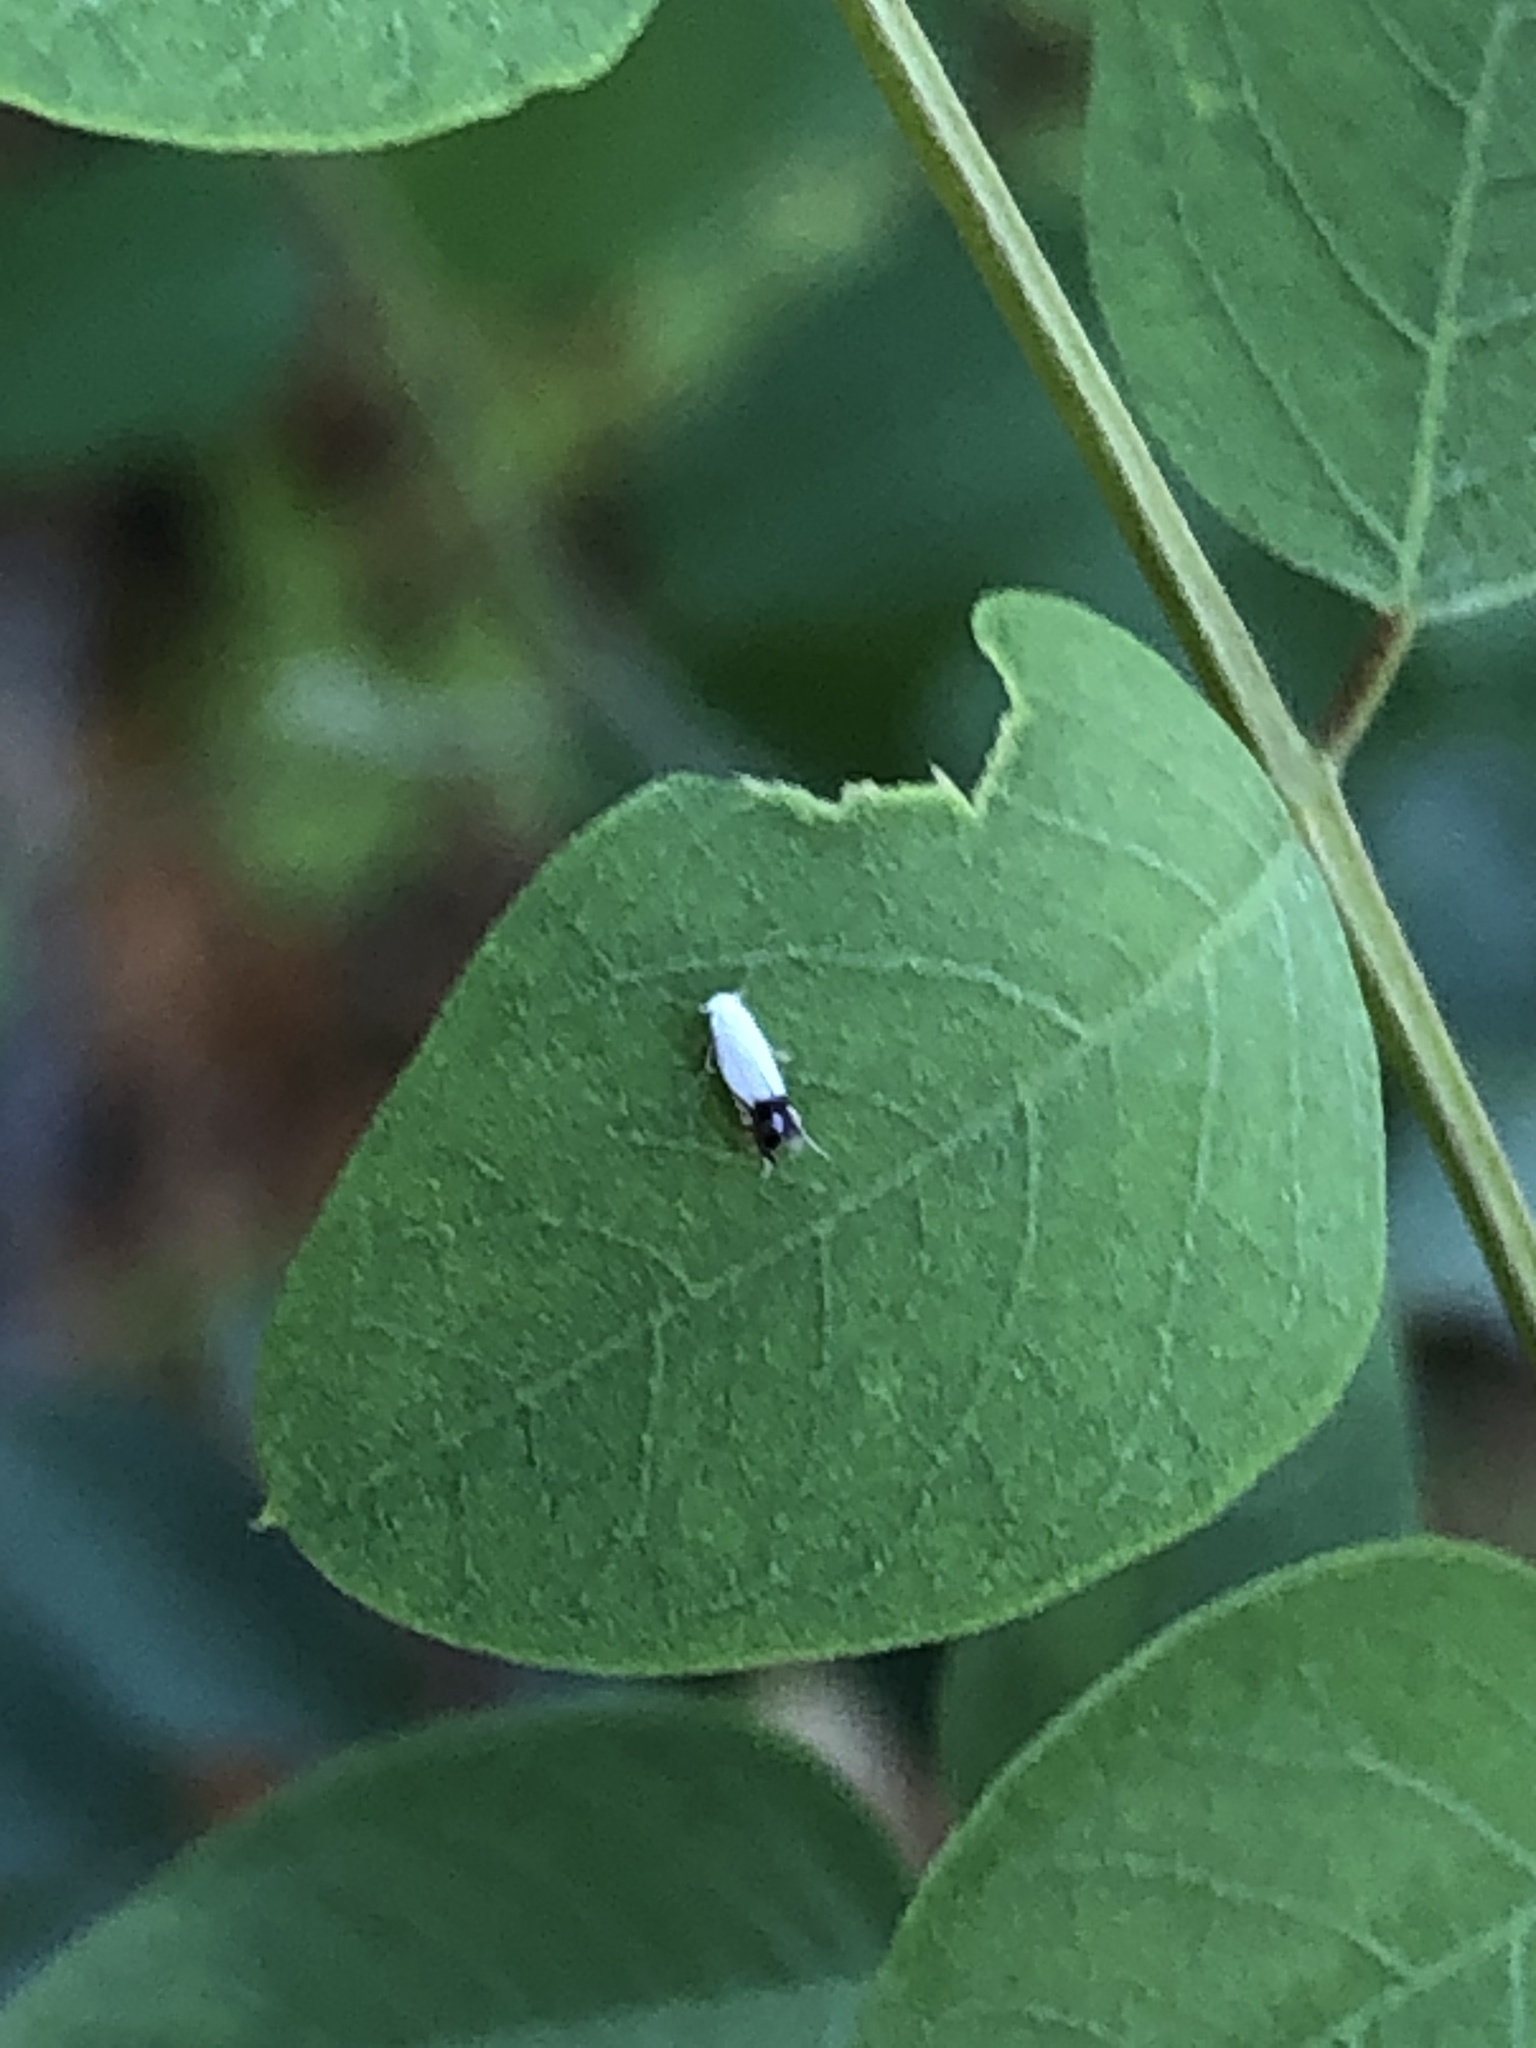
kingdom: Animalia
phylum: Arthropoda
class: Insecta
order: Lepidoptera
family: Lyonetiidae
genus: Leucoptera
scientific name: Leucoptera robiniella
